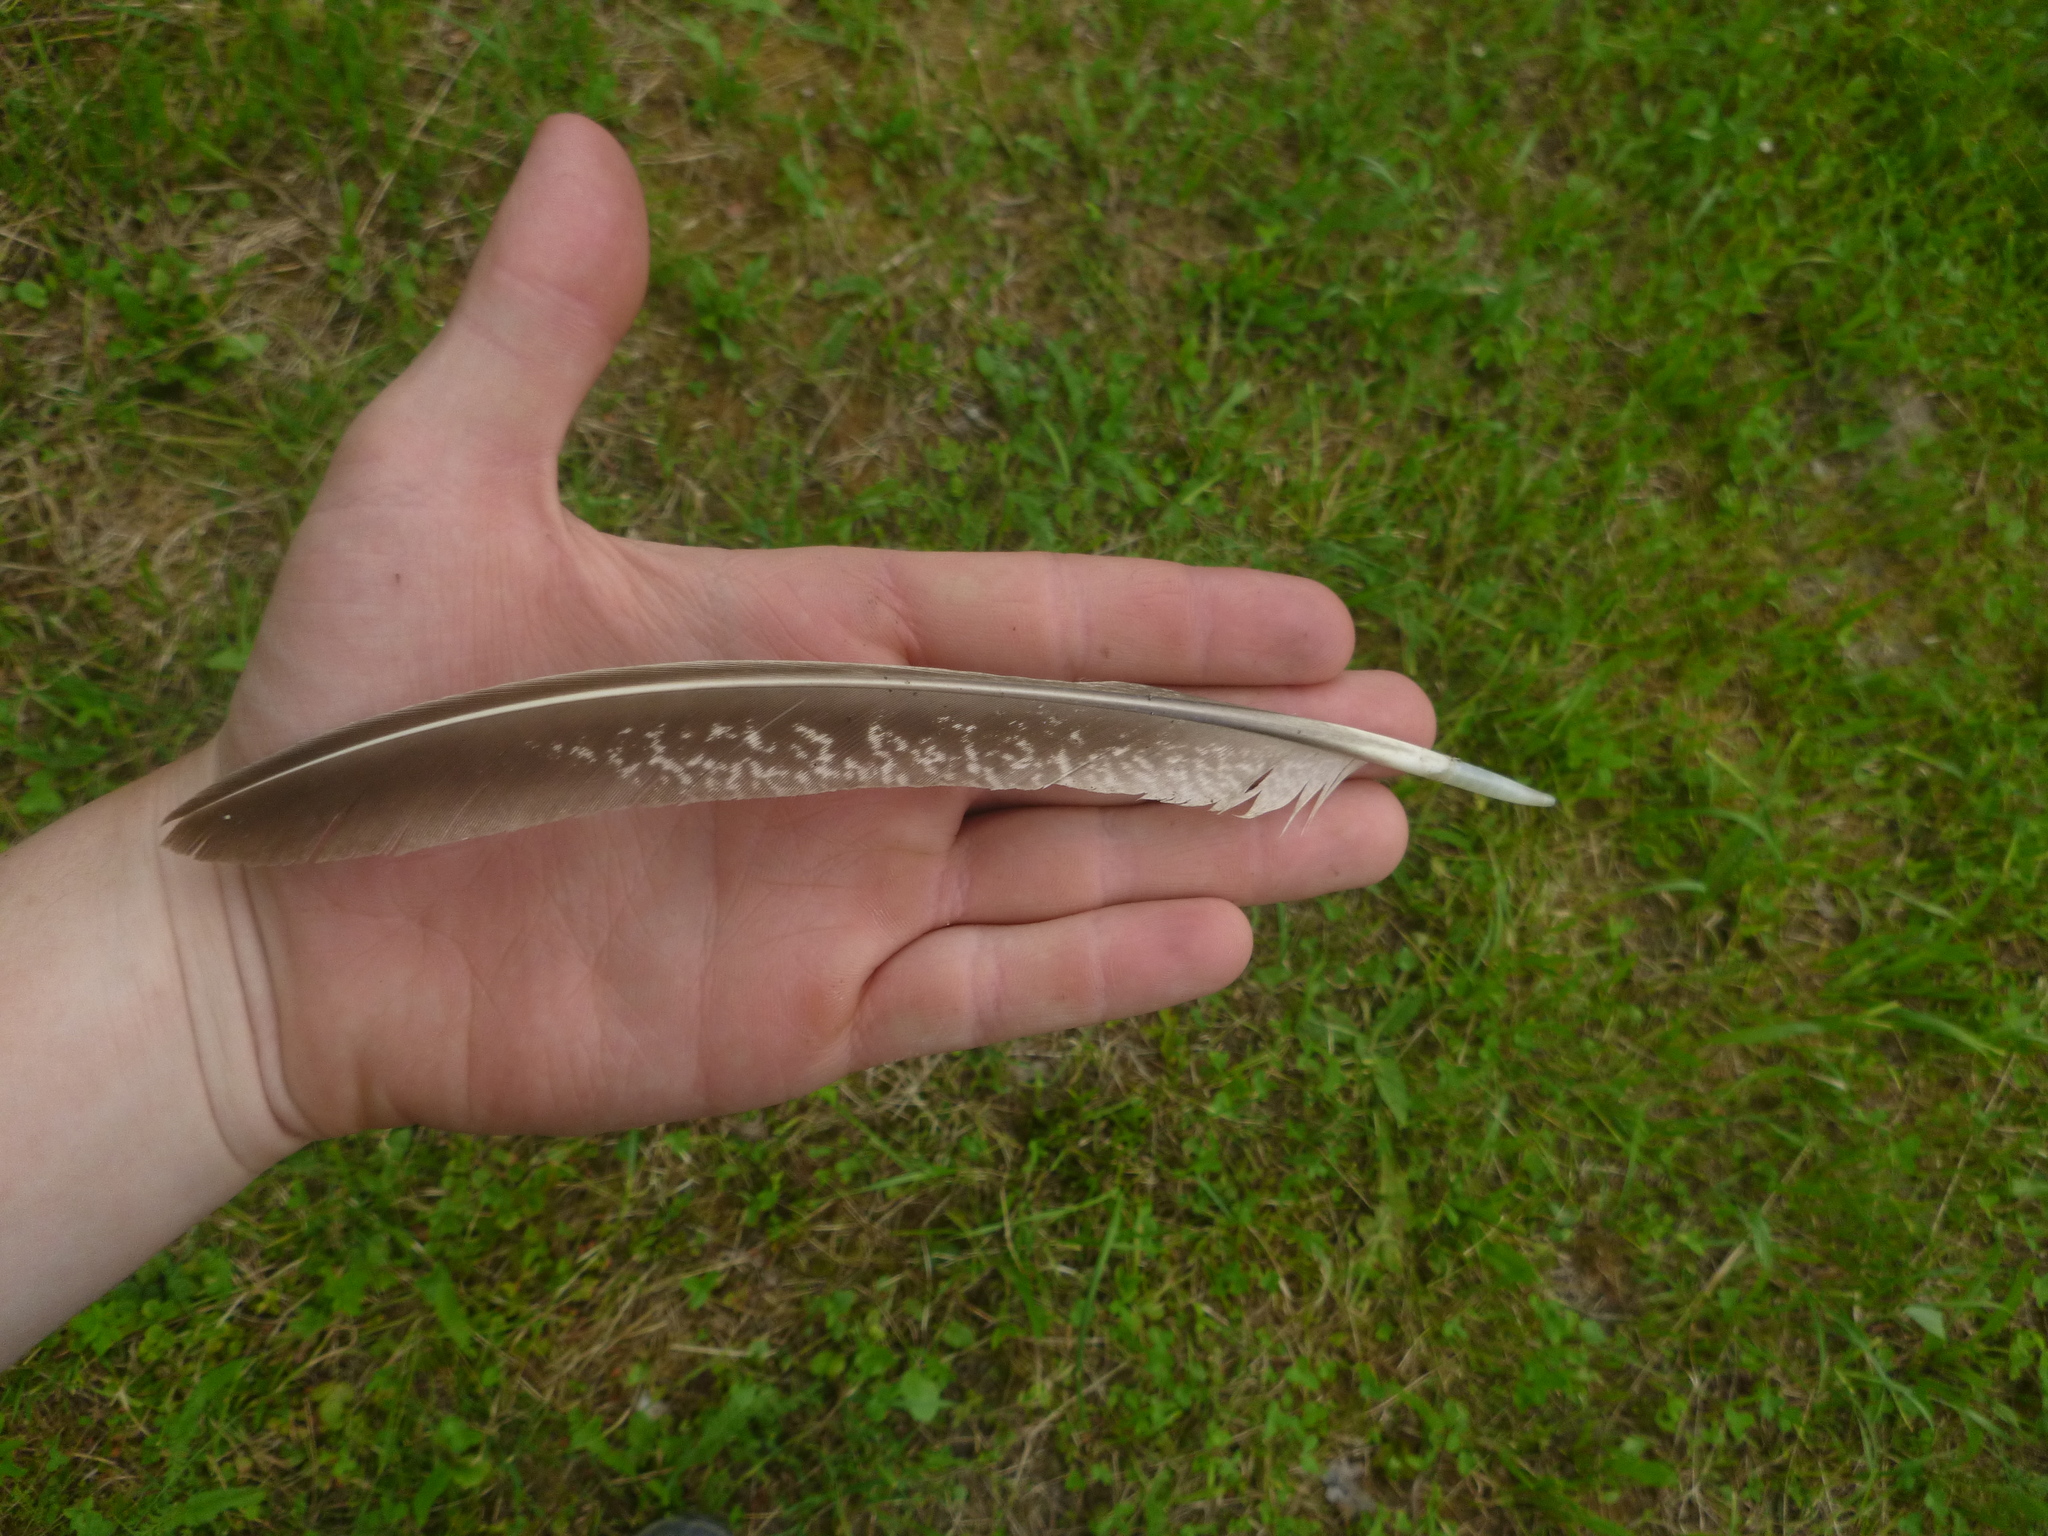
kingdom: Animalia
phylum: Chordata
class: Aves
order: Galliformes
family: Phasianidae
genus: Phasianus
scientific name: Phasianus colchicus
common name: Common pheasant
